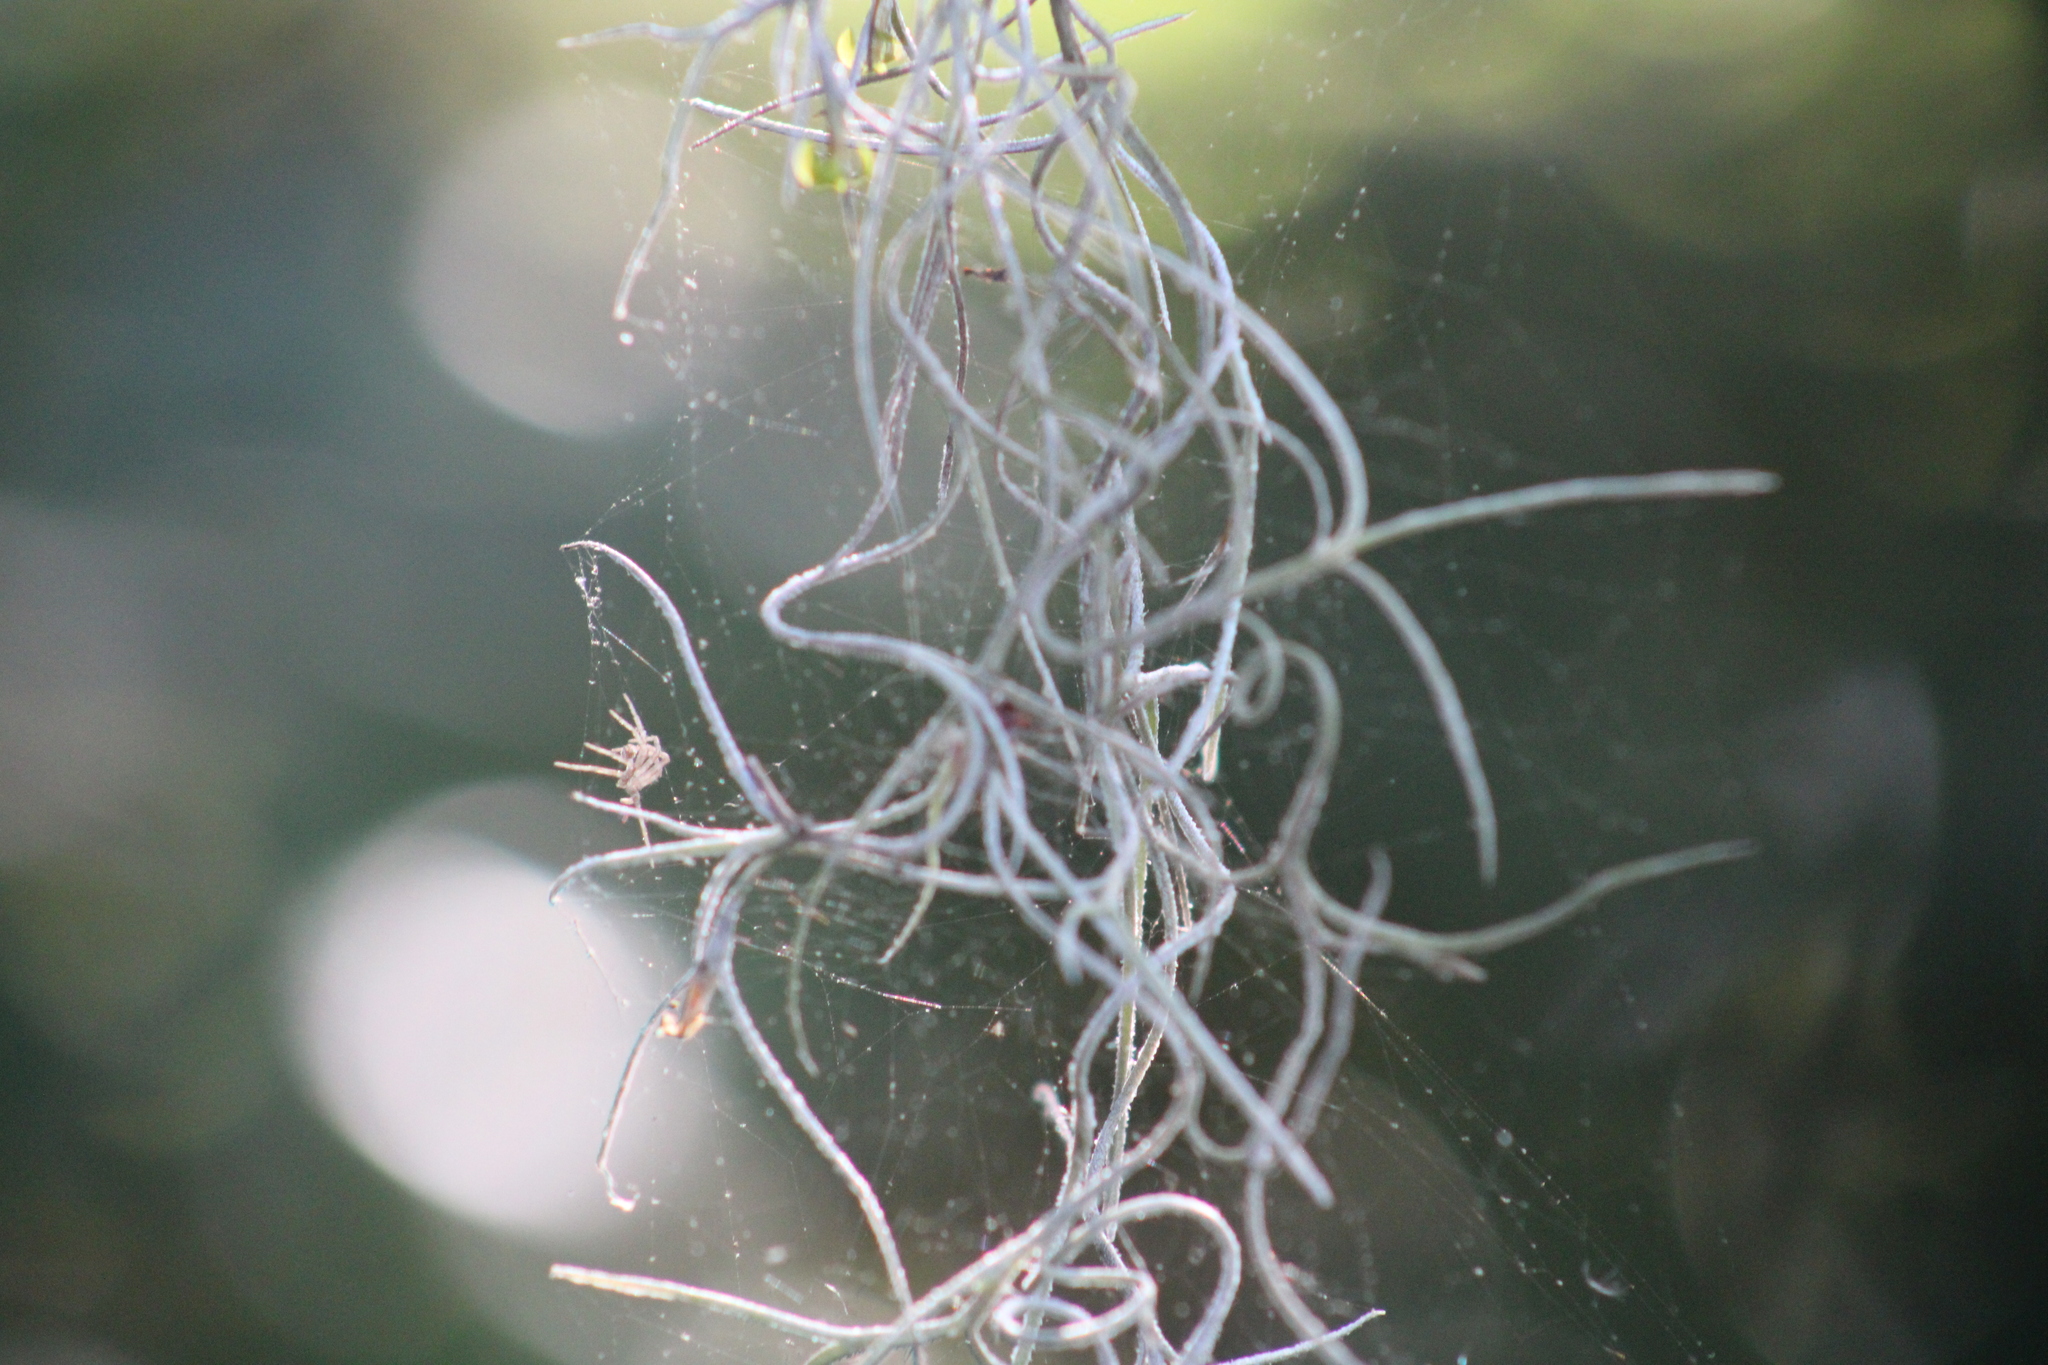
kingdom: Plantae
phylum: Tracheophyta
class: Liliopsida
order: Poales
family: Bromeliaceae
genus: Tillandsia
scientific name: Tillandsia usneoides
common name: Spanish moss
